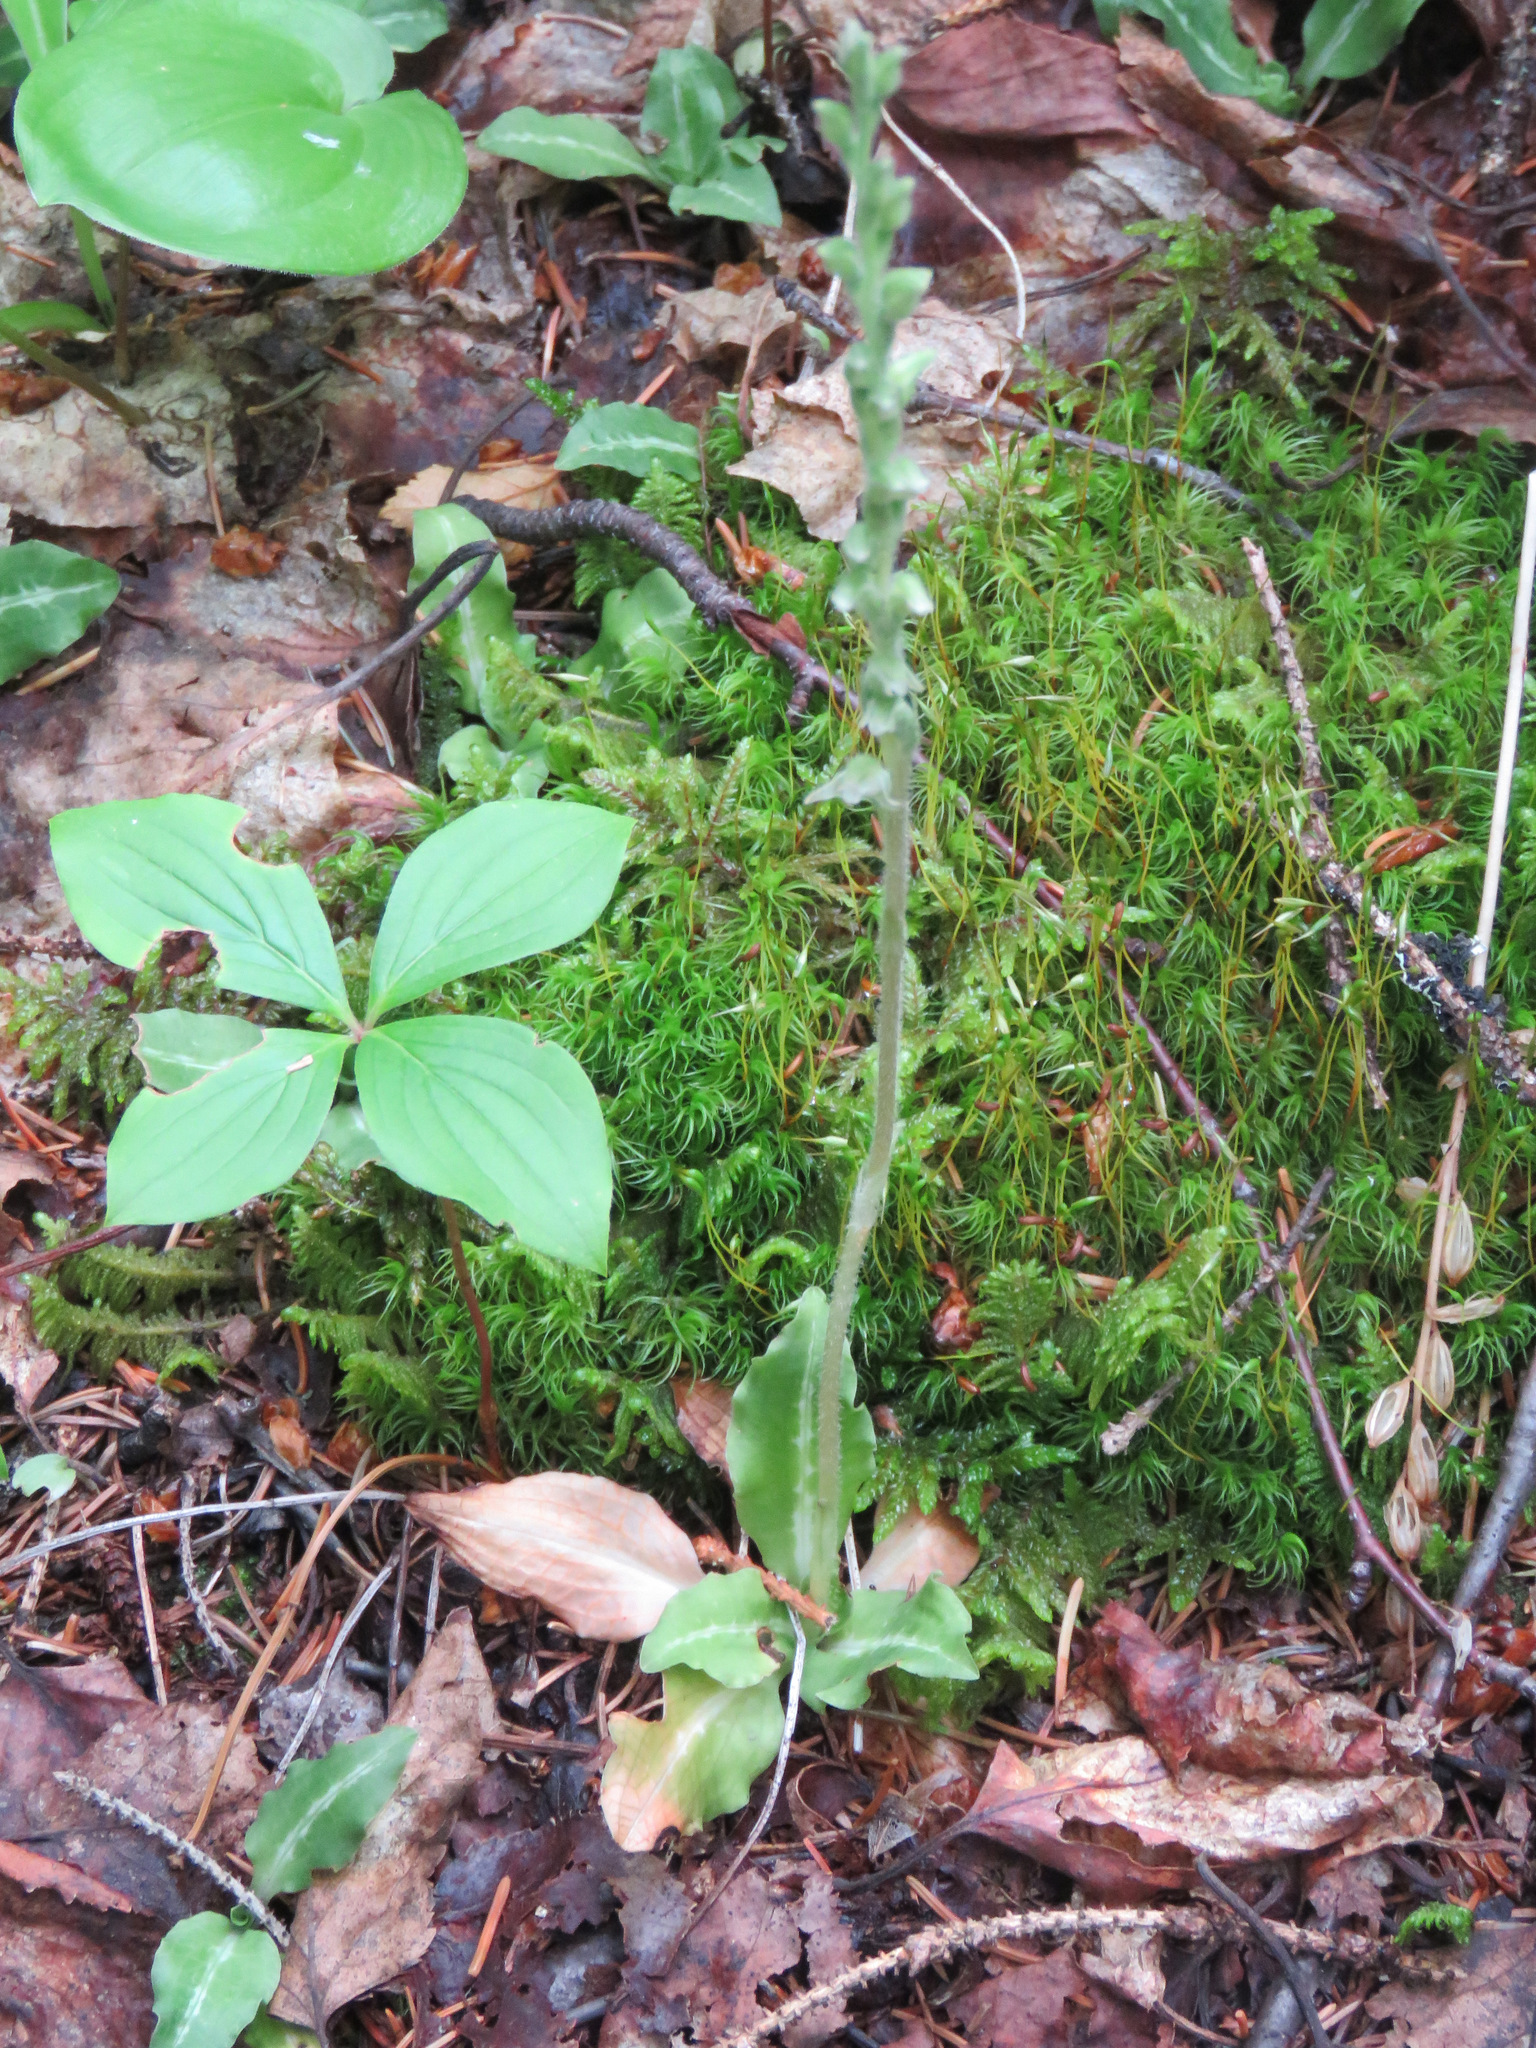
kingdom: Plantae
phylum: Tracheophyta
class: Liliopsida
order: Asparagales
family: Orchidaceae
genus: Goodyera
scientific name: Goodyera oblongifolia
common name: Giant rattlesnake-plantain
